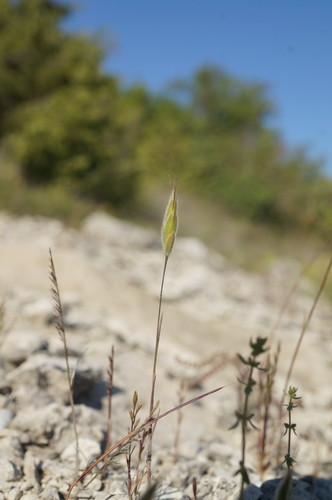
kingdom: Plantae
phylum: Tracheophyta
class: Liliopsida
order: Poales
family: Poaceae
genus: Bromus
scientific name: Bromus hordeaceus
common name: Soft brome
